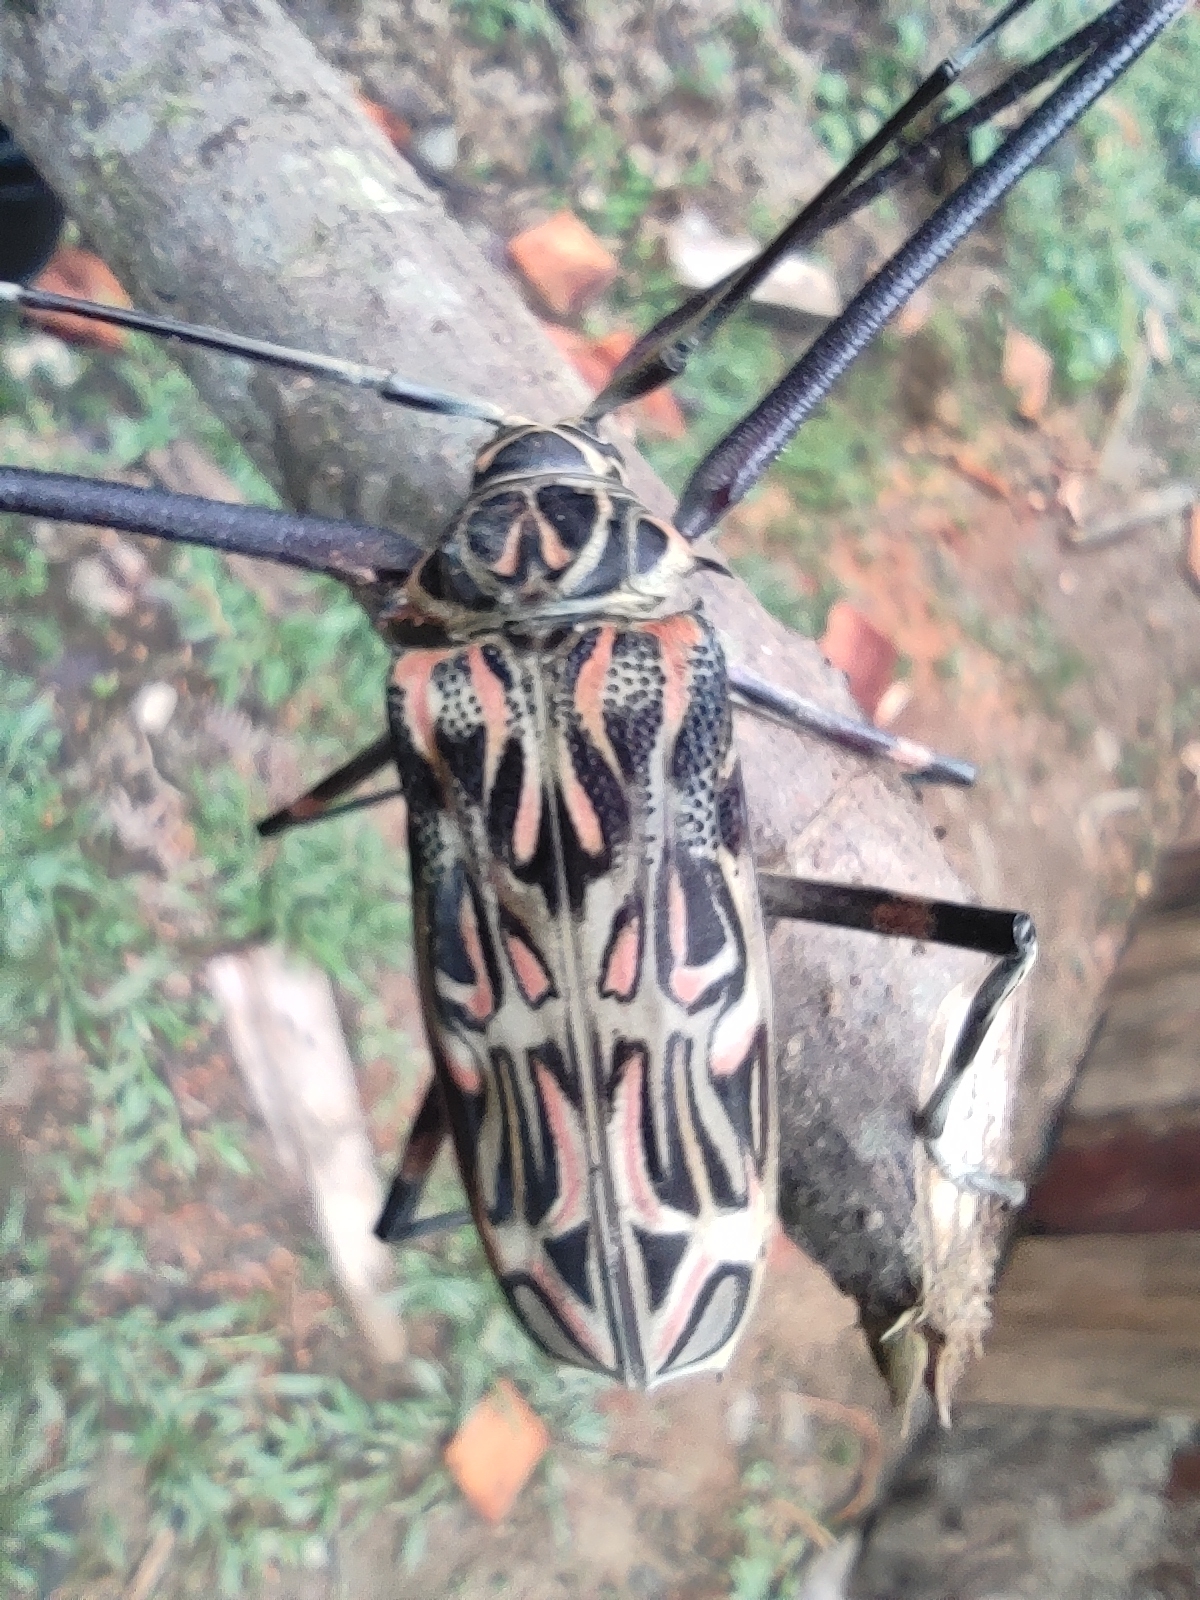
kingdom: Animalia
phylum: Arthropoda
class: Insecta
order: Coleoptera
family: Cerambycidae
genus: Acrocinus
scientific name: Acrocinus longimanus
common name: Arlequin
